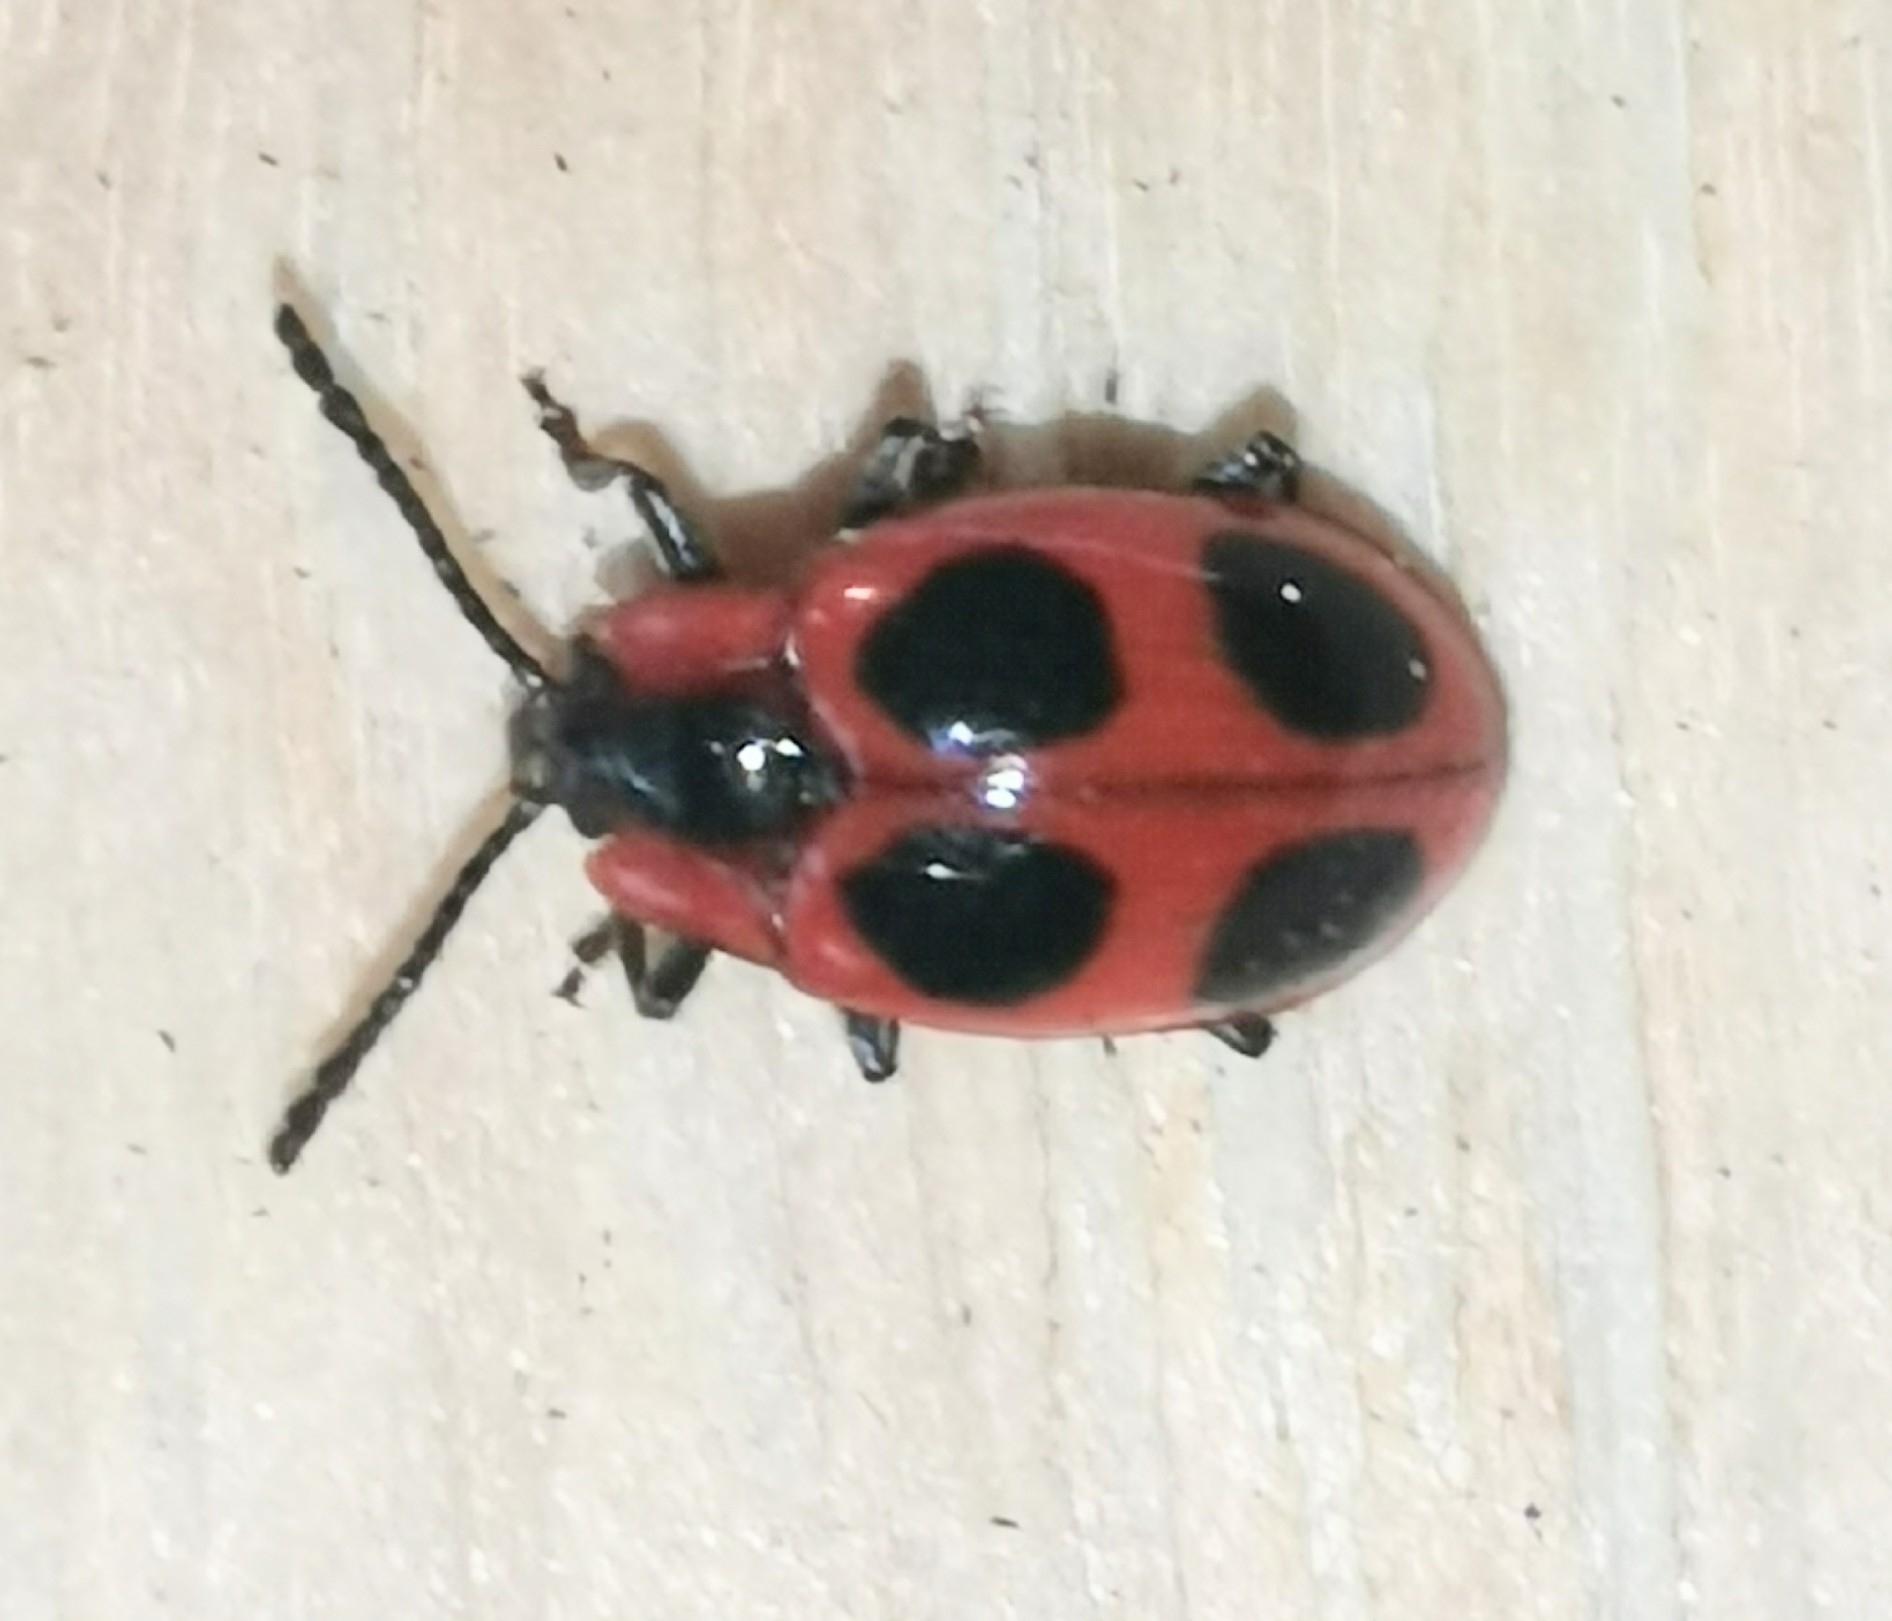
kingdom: Animalia
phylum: Arthropoda
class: Insecta
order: Coleoptera
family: Endomychidae
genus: Endomychus
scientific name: Endomychus coccineus
